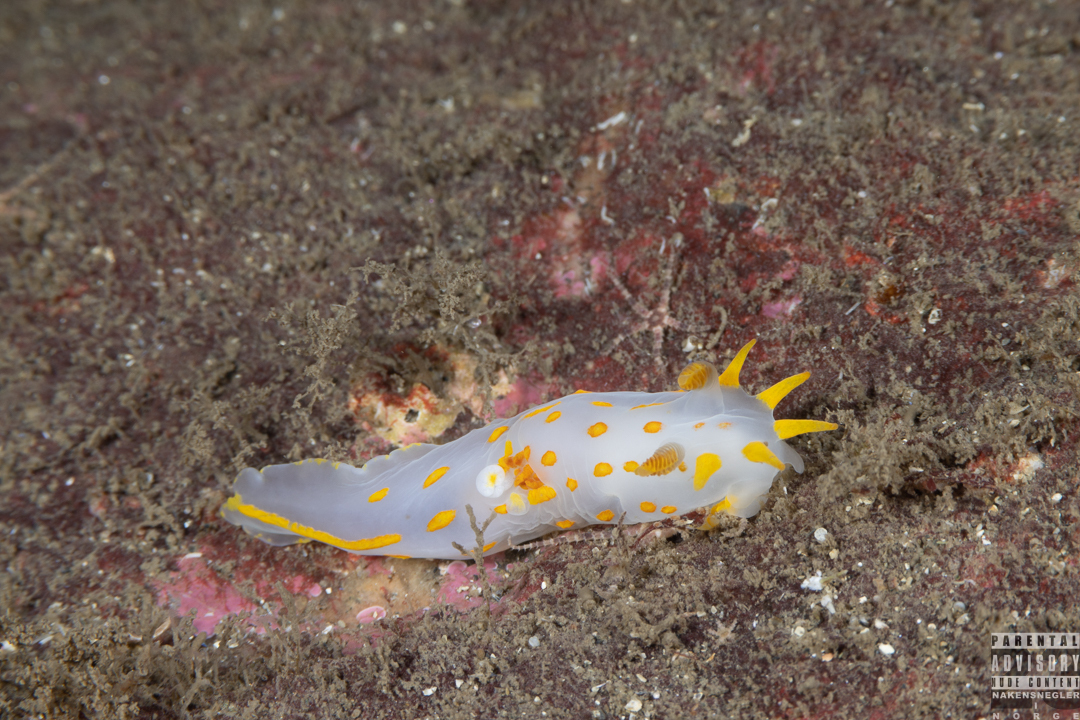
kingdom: Animalia
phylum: Mollusca
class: Gastropoda
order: Nudibranchia
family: Polyceridae
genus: Polycera
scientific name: Polycera quadrilineata
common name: Four-striped polycera
